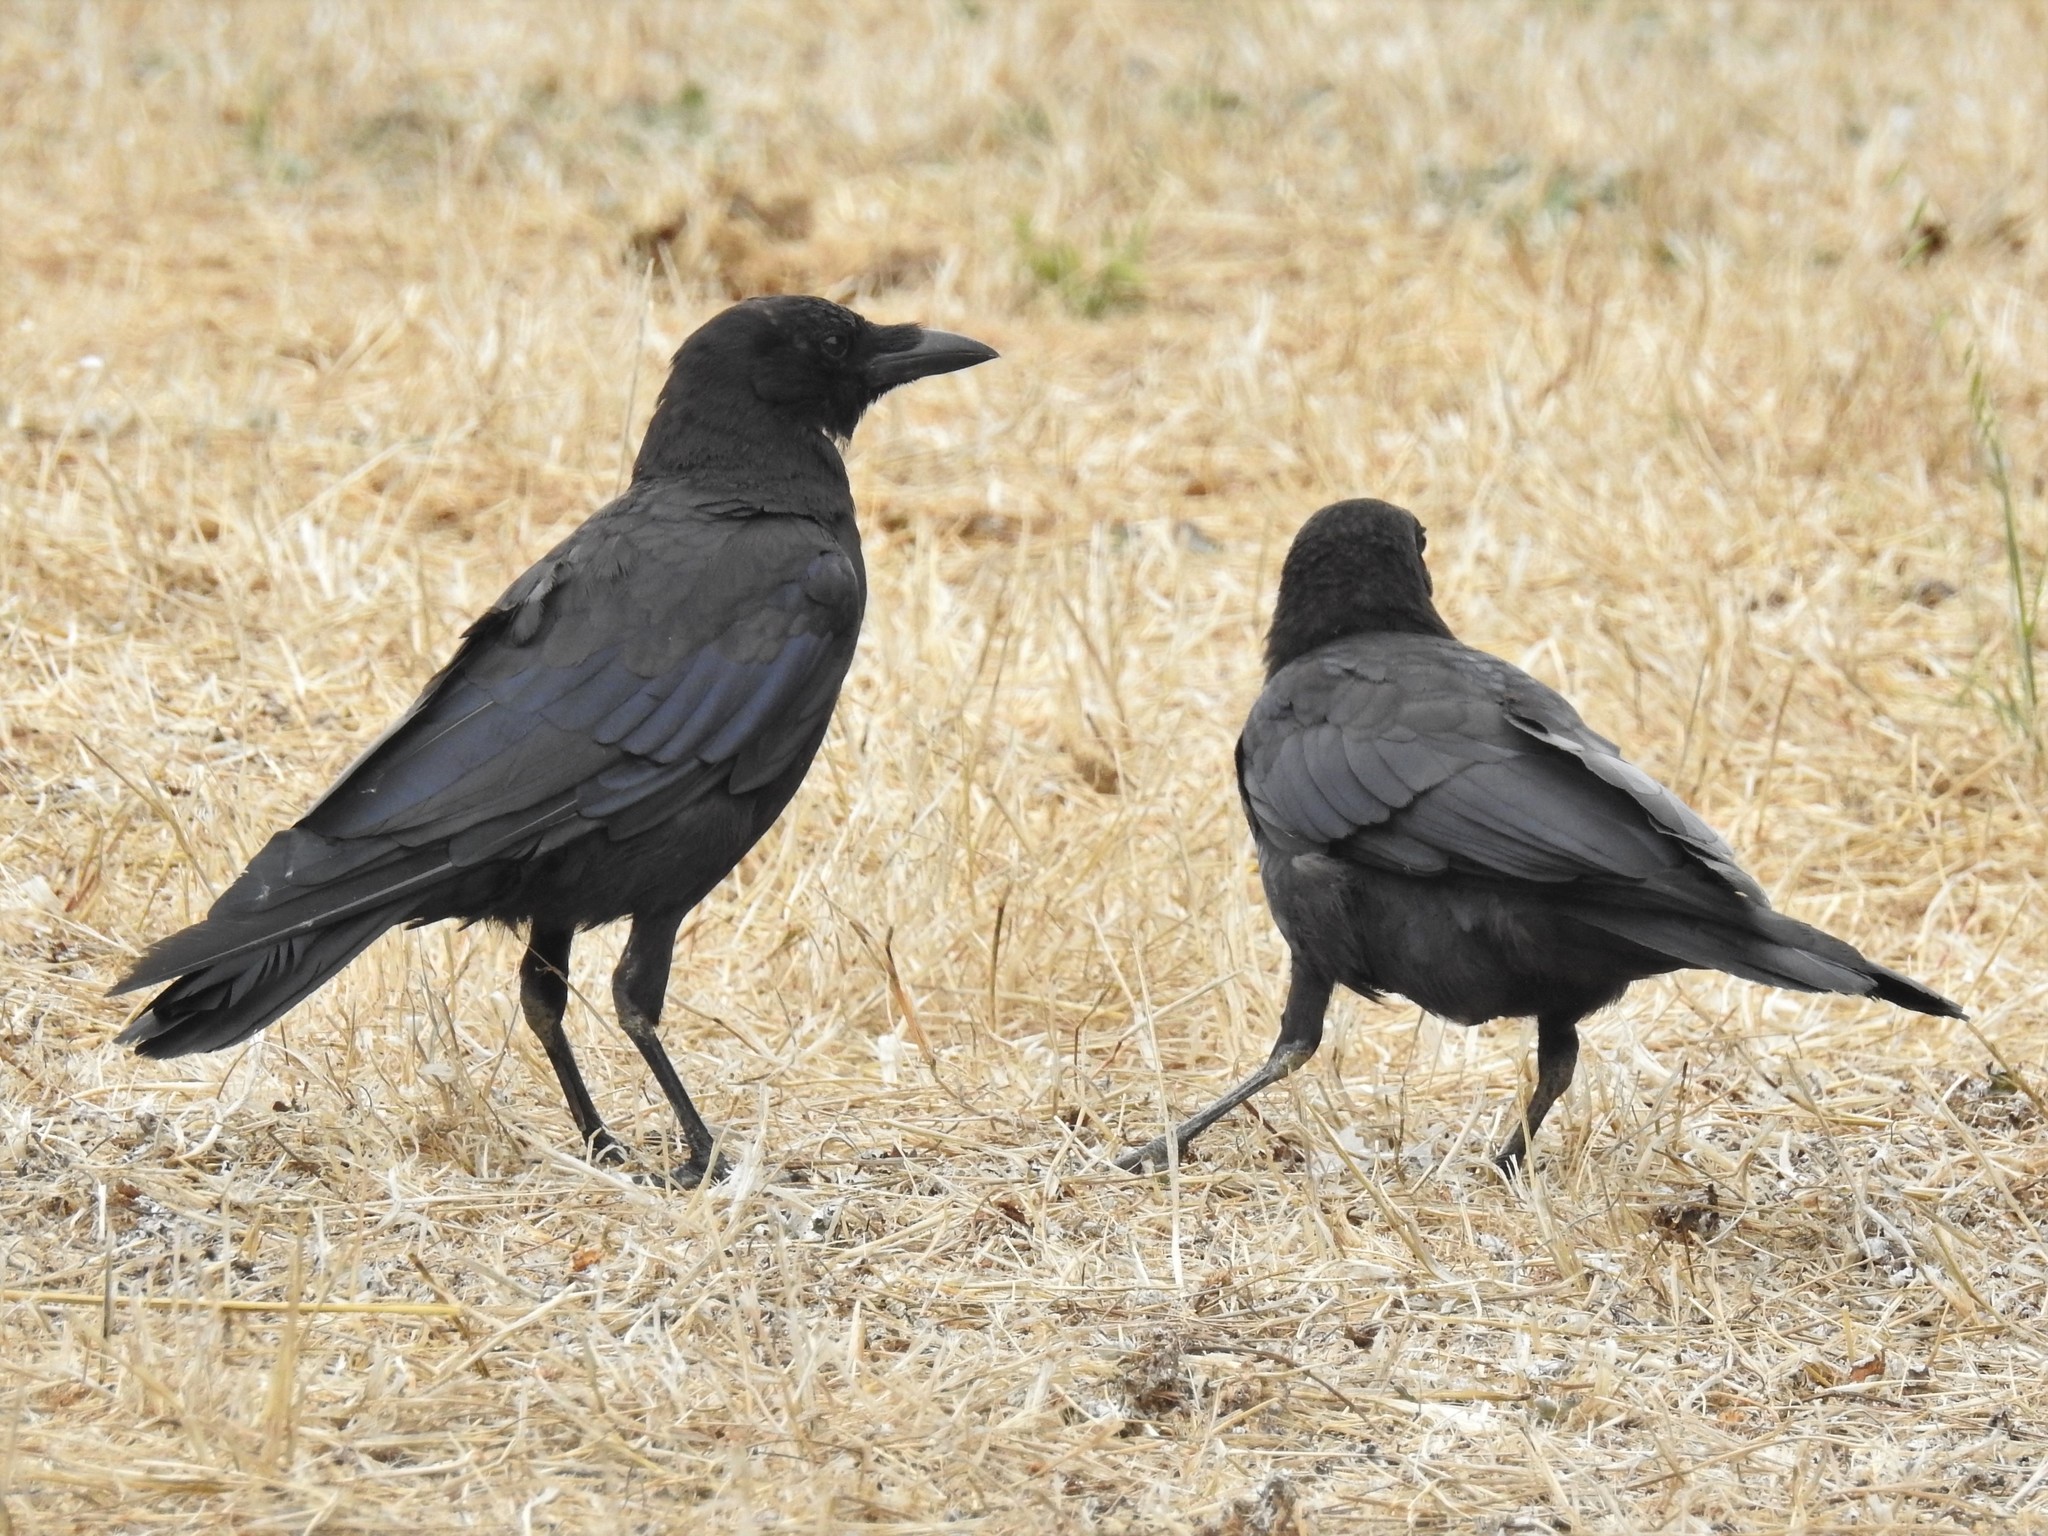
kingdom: Animalia
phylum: Chordata
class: Aves
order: Passeriformes
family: Corvidae
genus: Corvus
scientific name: Corvus brachyrhynchos
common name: American crow
